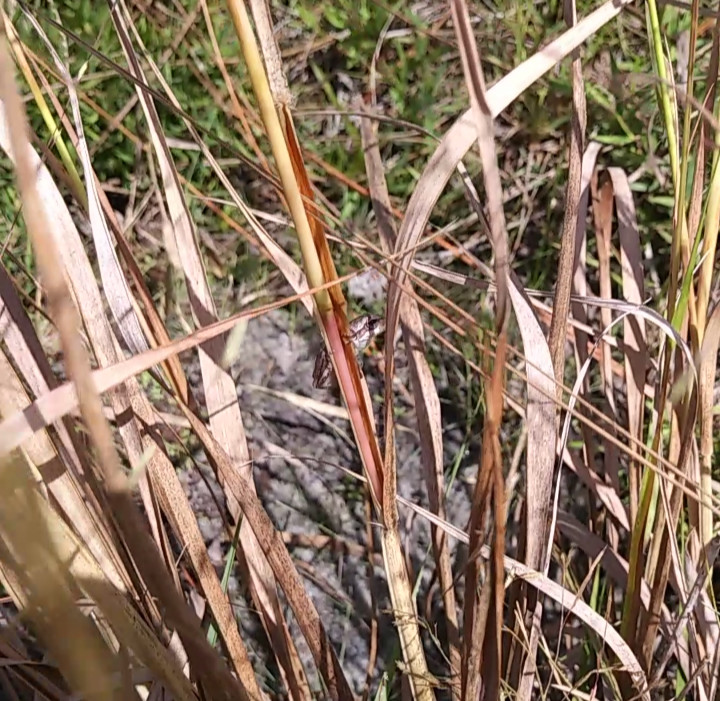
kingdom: Animalia
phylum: Chordata
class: Amphibia
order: Anura
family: Hylidae
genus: Hyla
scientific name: Hyla femoralis
